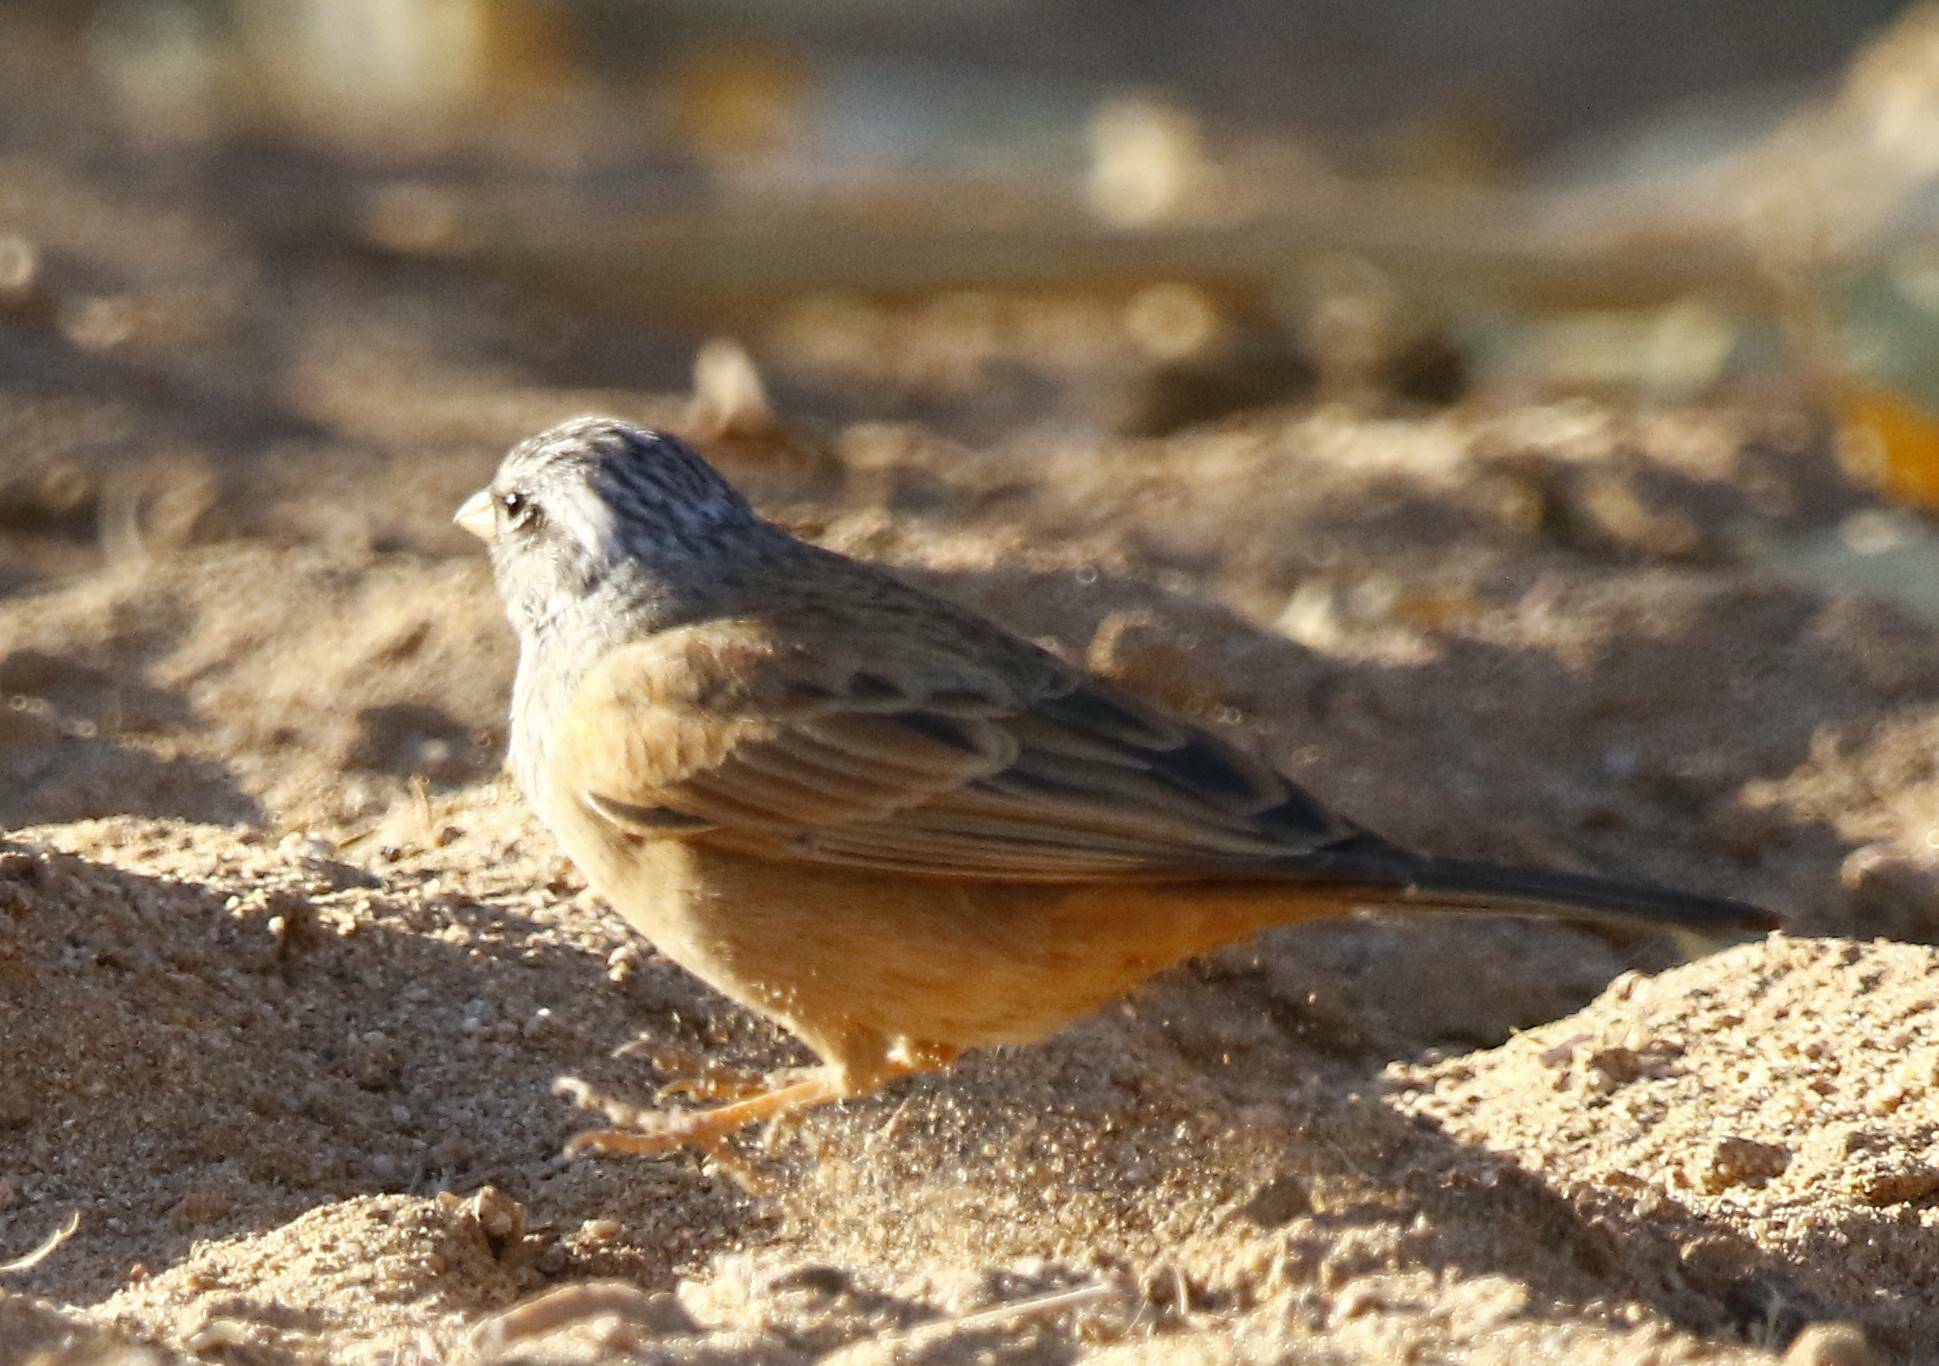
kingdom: Animalia
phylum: Chordata
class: Aves
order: Passeriformes
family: Emberizidae
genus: Emberiza
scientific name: Emberiza sahari
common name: House bunting
